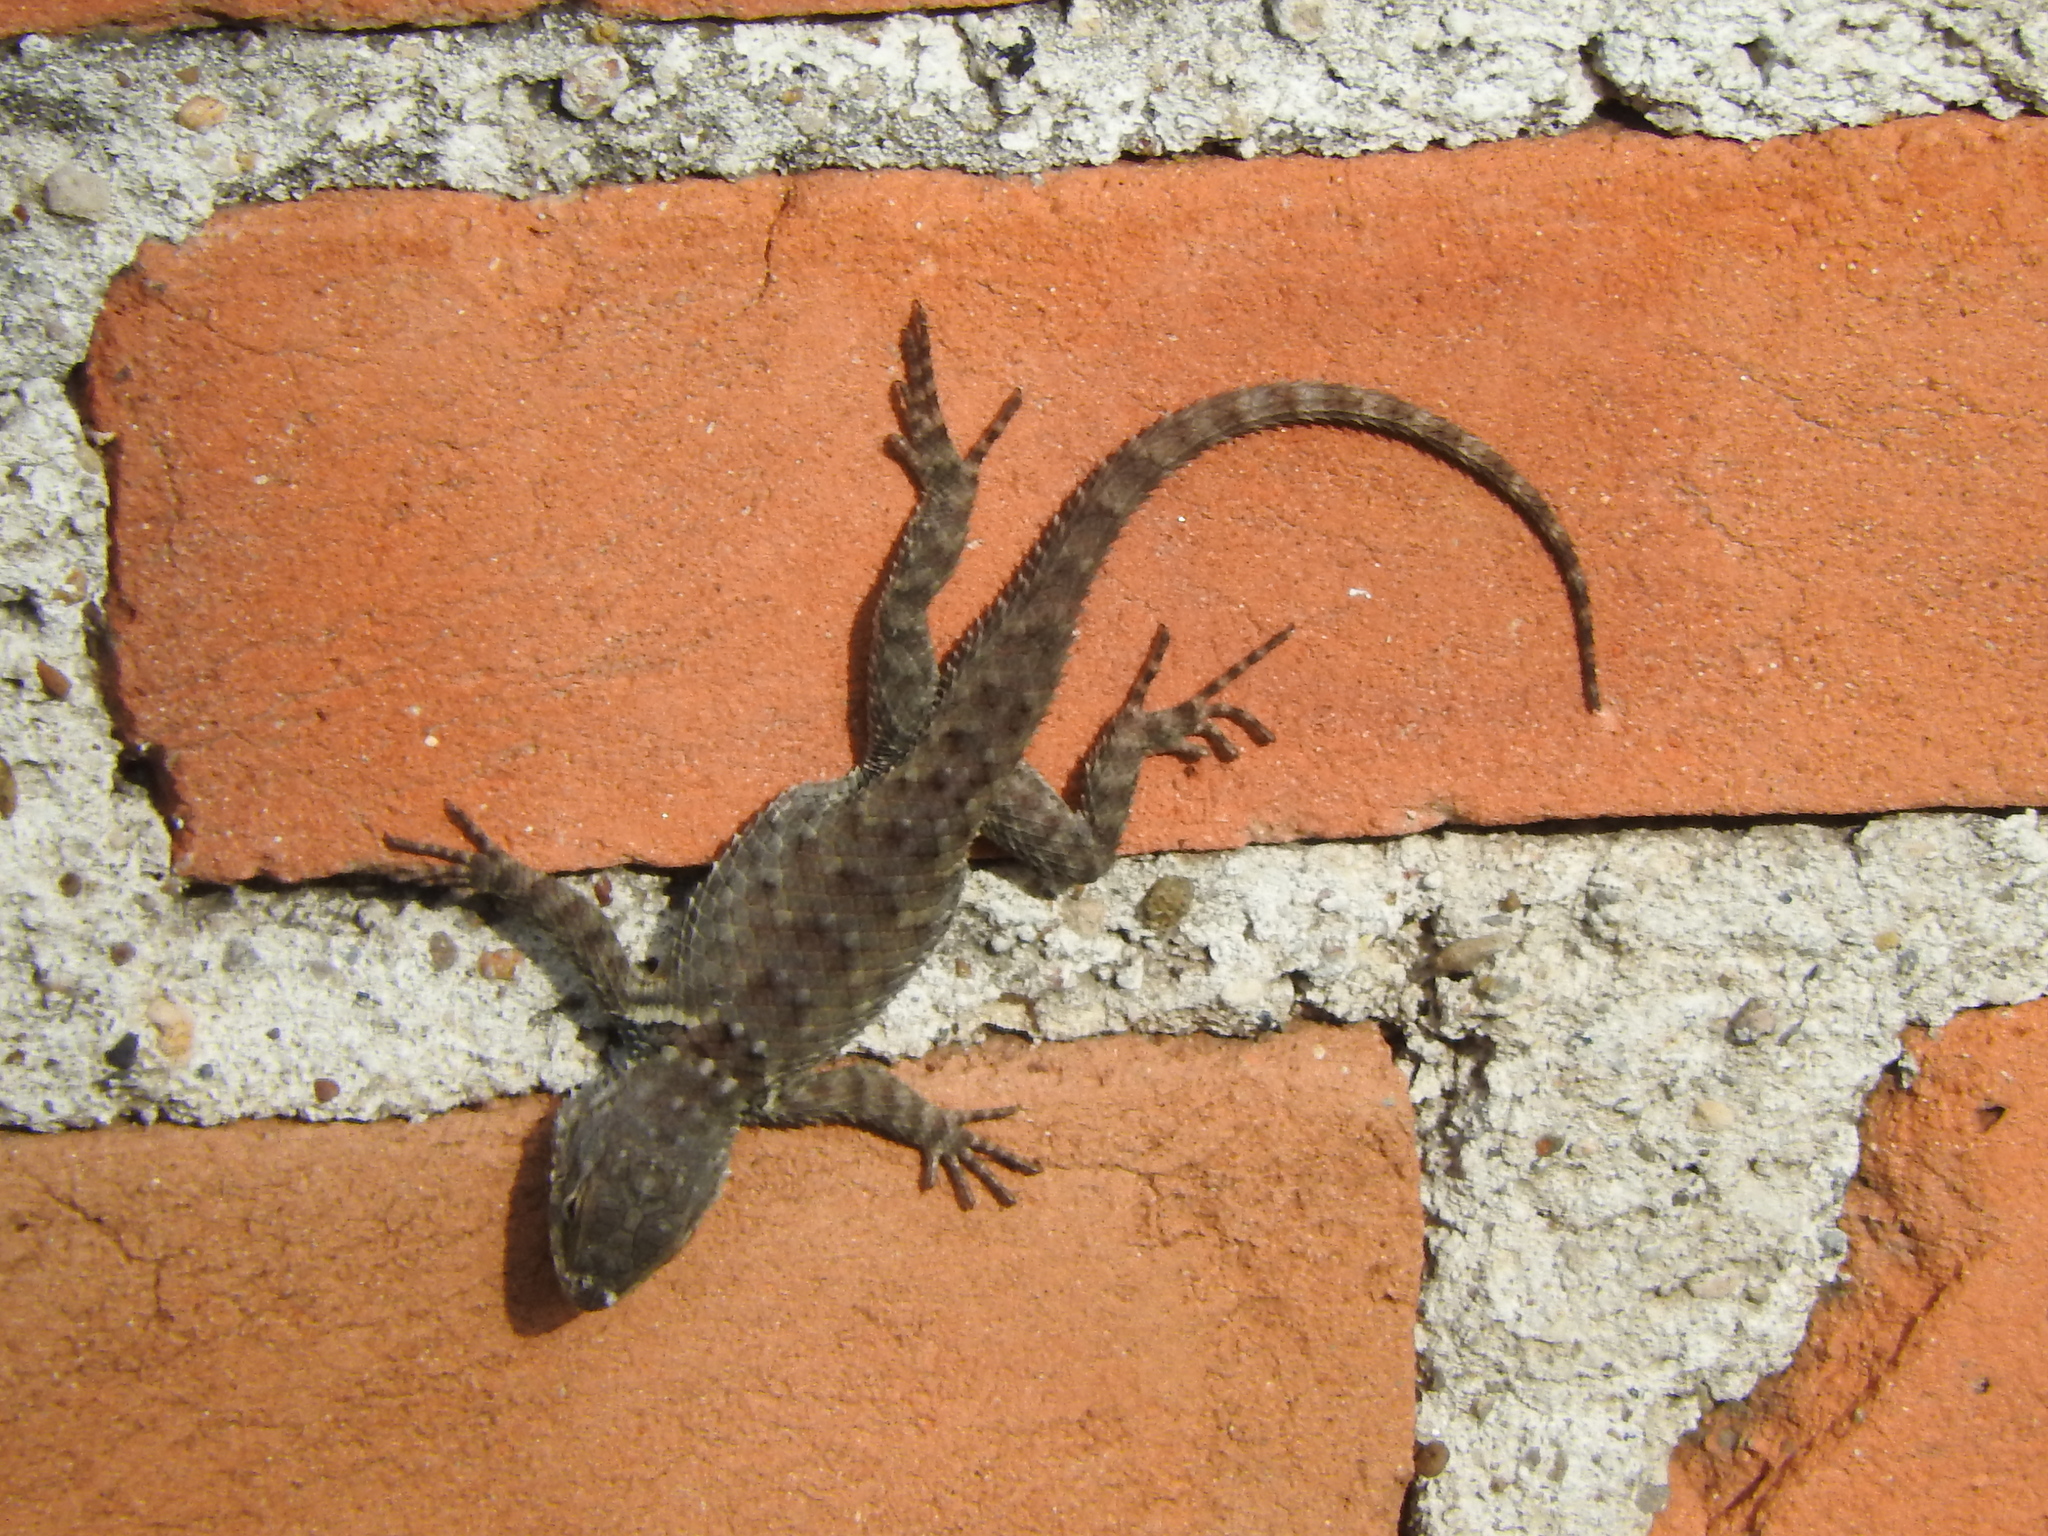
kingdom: Animalia
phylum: Chordata
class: Squamata
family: Phrynosomatidae
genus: Sceloporus
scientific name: Sceloporus torquatus
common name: Central plateau torquate lizard [melanogaster]
